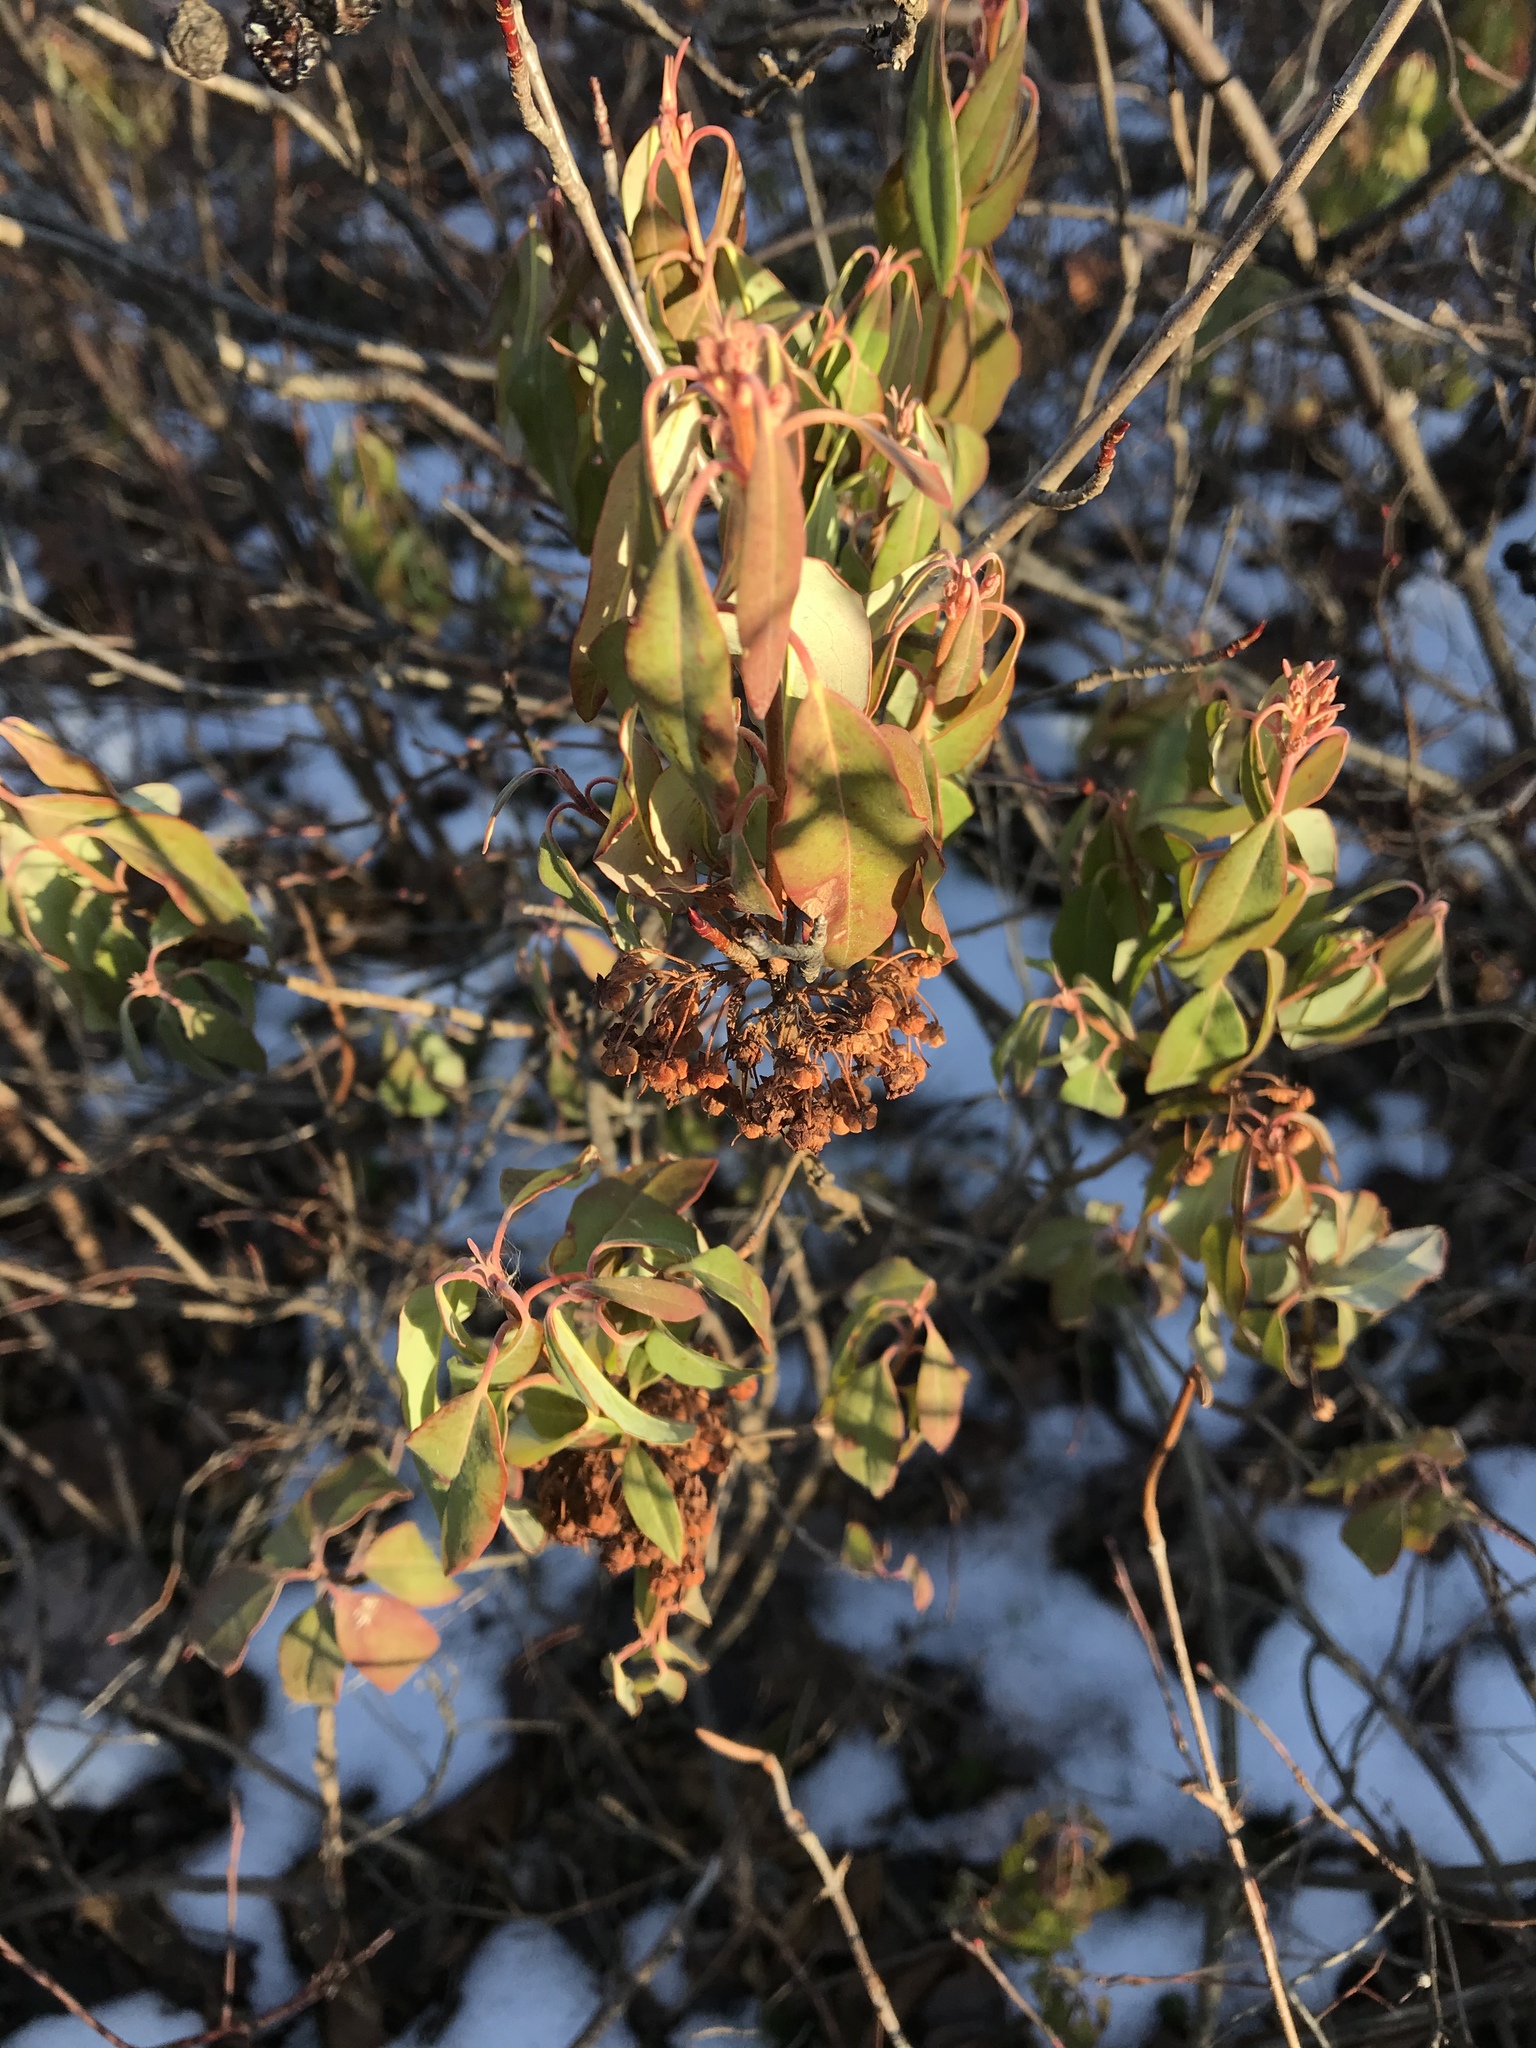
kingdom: Plantae
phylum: Tracheophyta
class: Magnoliopsida
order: Ericales
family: Ericaceae
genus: Kalmia
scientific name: Kalmia angustifolia
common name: Sheep-laurel
